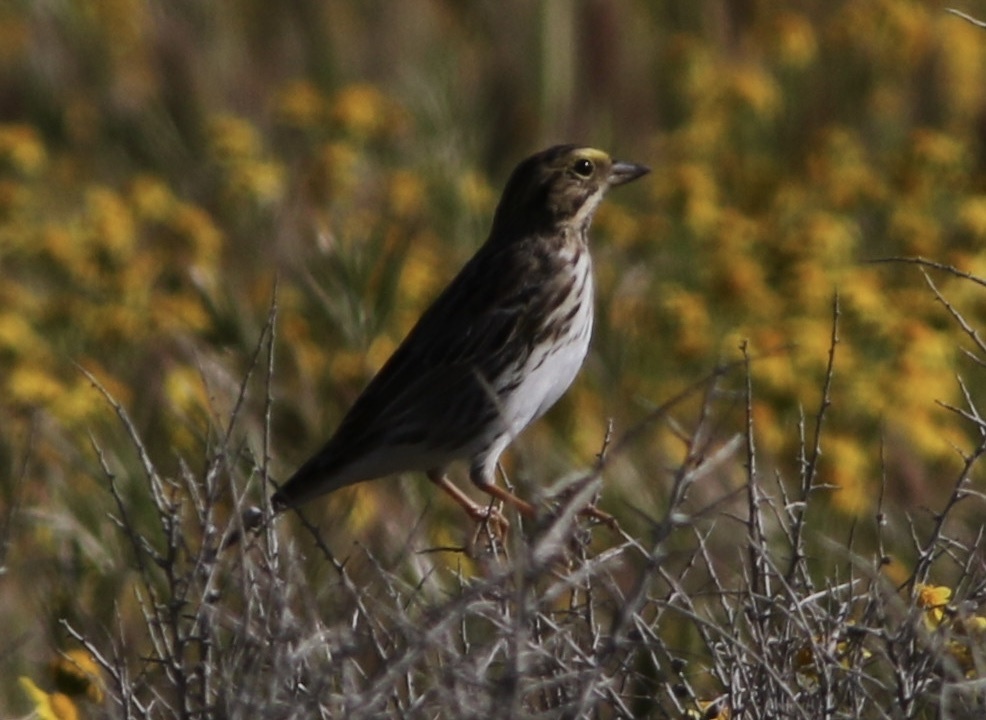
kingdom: Animalia
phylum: Chordata
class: Aves
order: Passeriformes
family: Passerellidae
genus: Passerculus
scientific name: Passerculus sandwichensis
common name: Savannah sparrow
